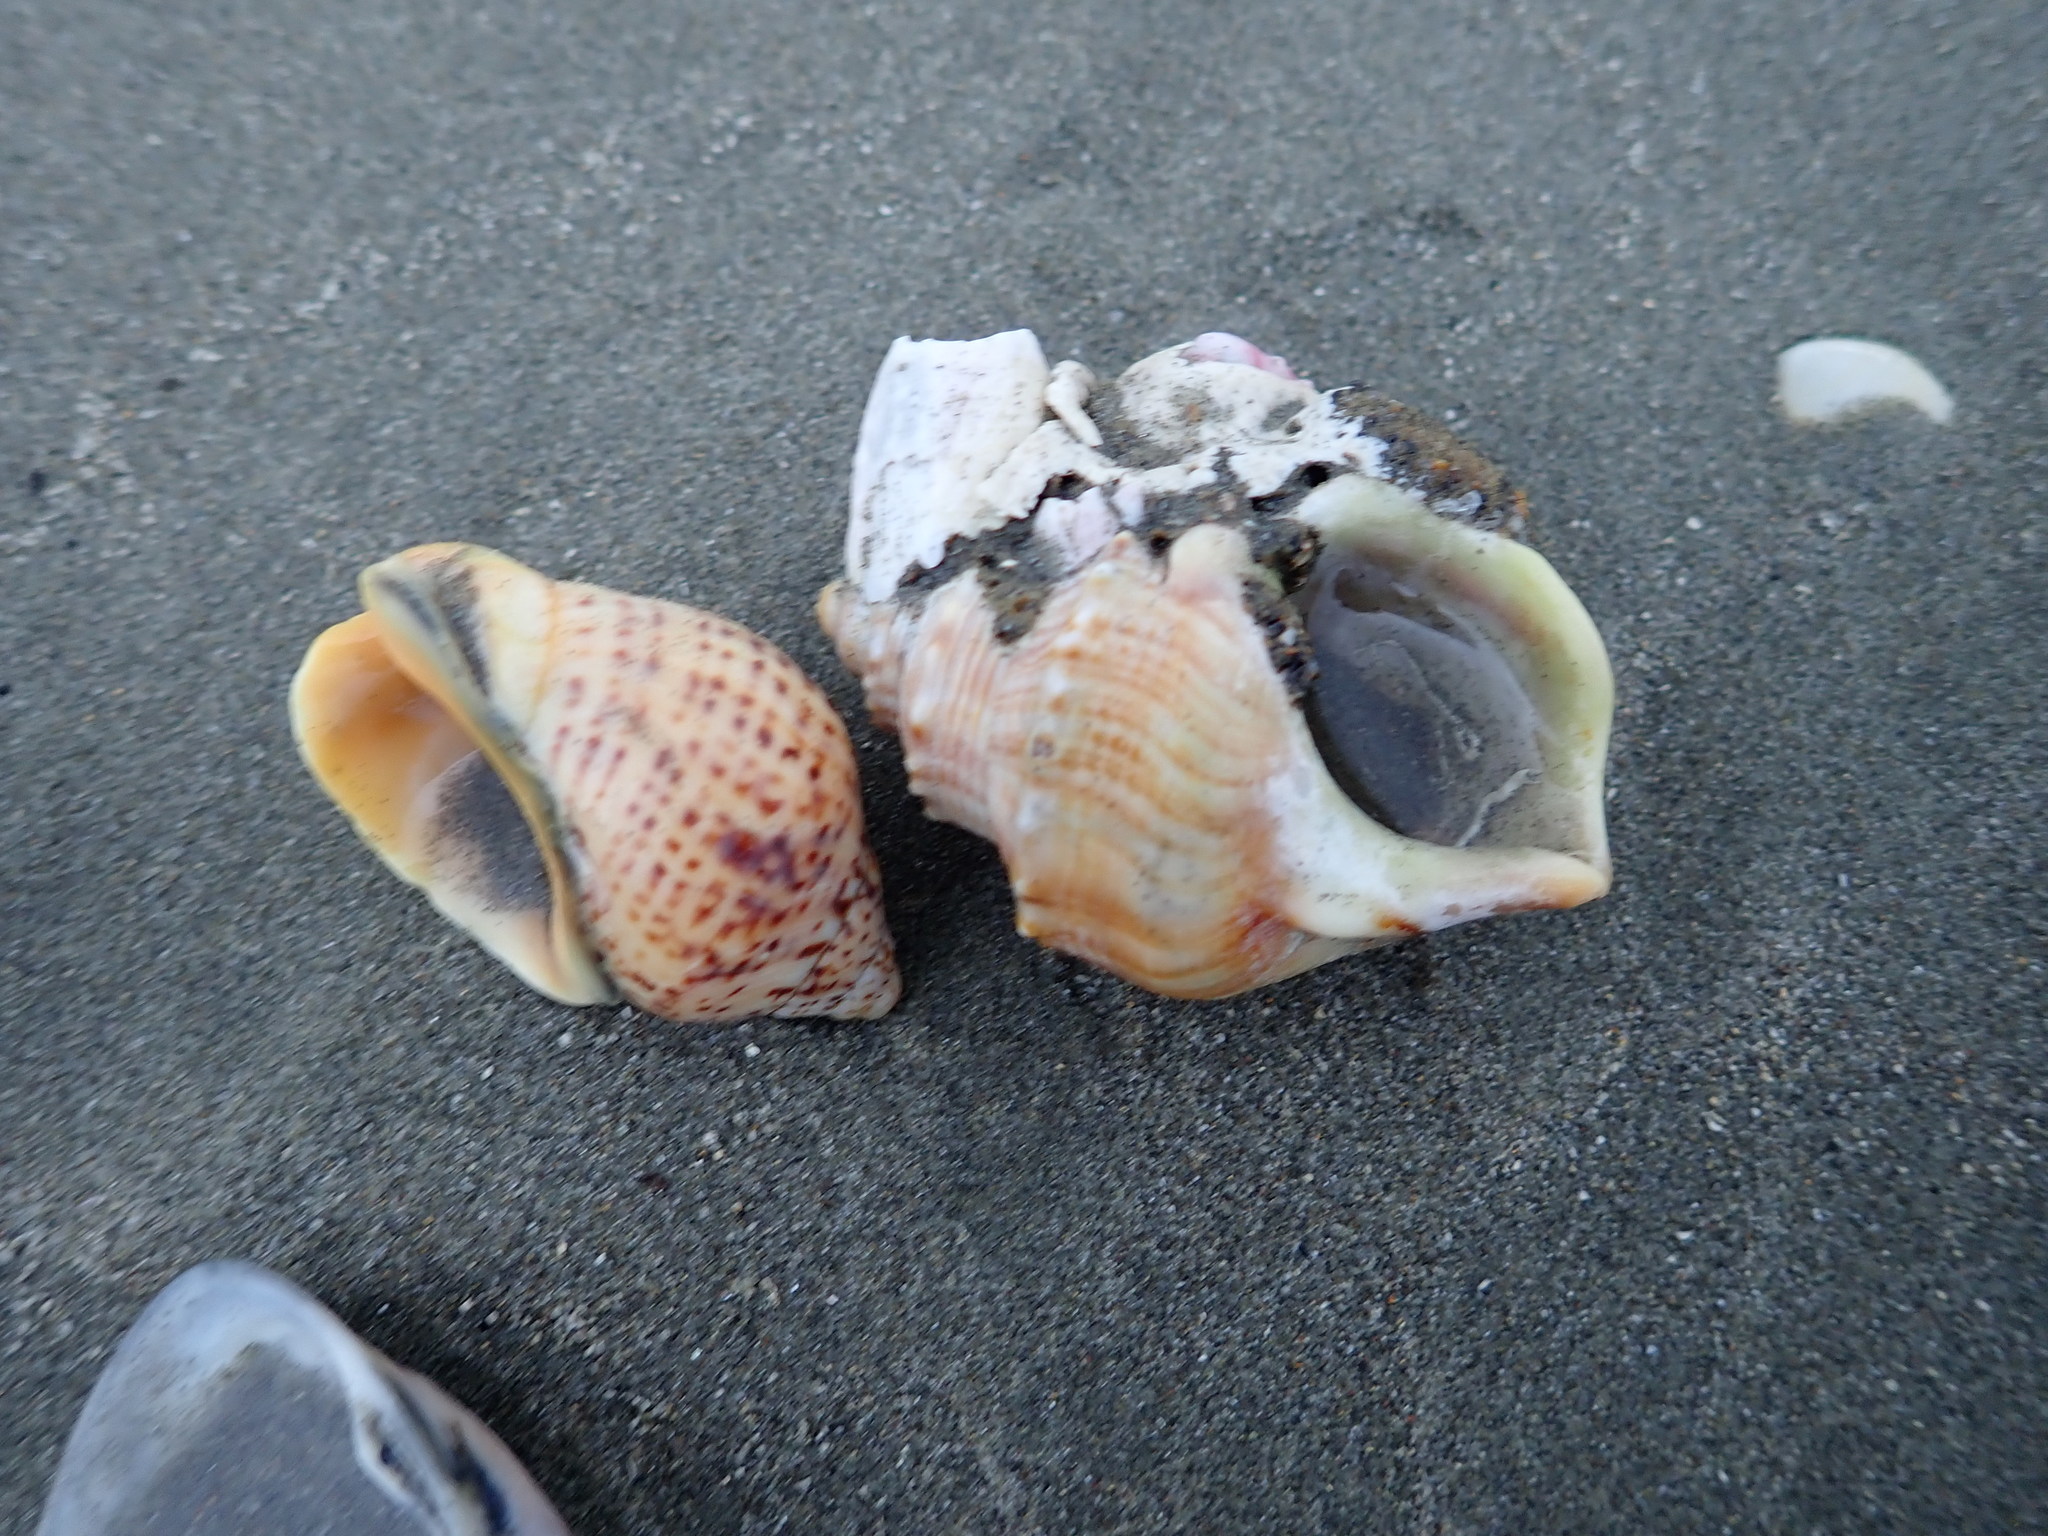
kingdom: Animalia
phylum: Mollusca
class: Gastropoda
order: Littorinimorpha
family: Struthiolariidae
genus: Struthiolaria
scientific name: Struthiolaria papulosa
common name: Large ostrich foot
